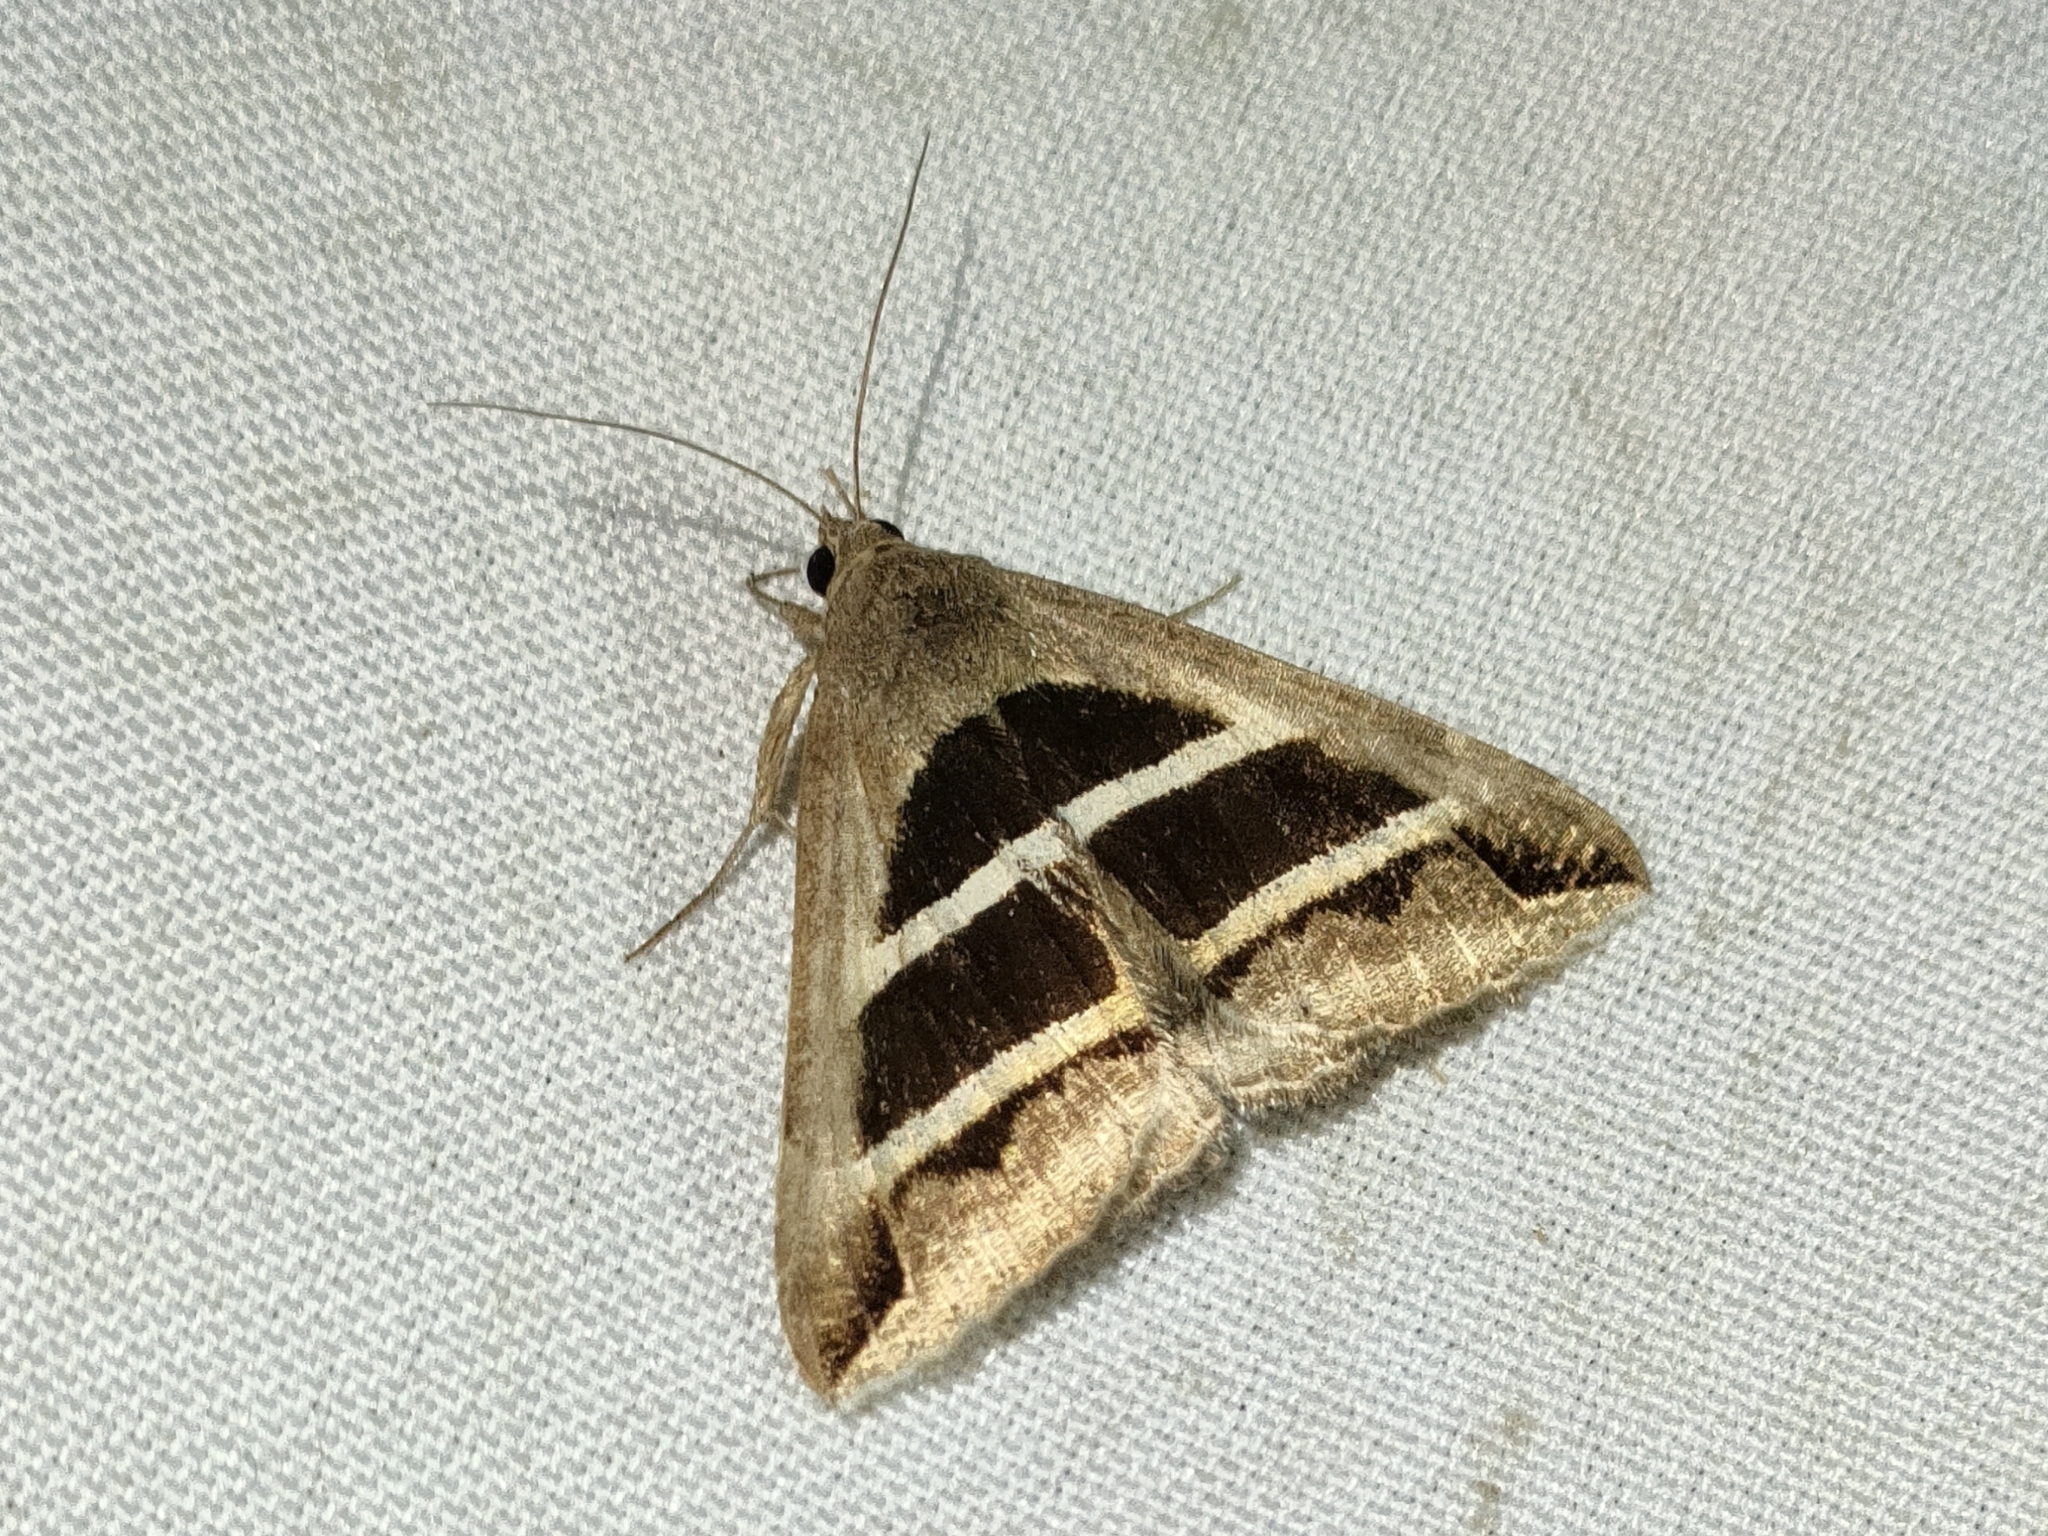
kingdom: Animalia
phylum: Arthropoda
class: Insecta
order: Lepidoptera
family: Erebidae
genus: Grammodes
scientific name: Grammodes bifasciata
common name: Parallel lines
